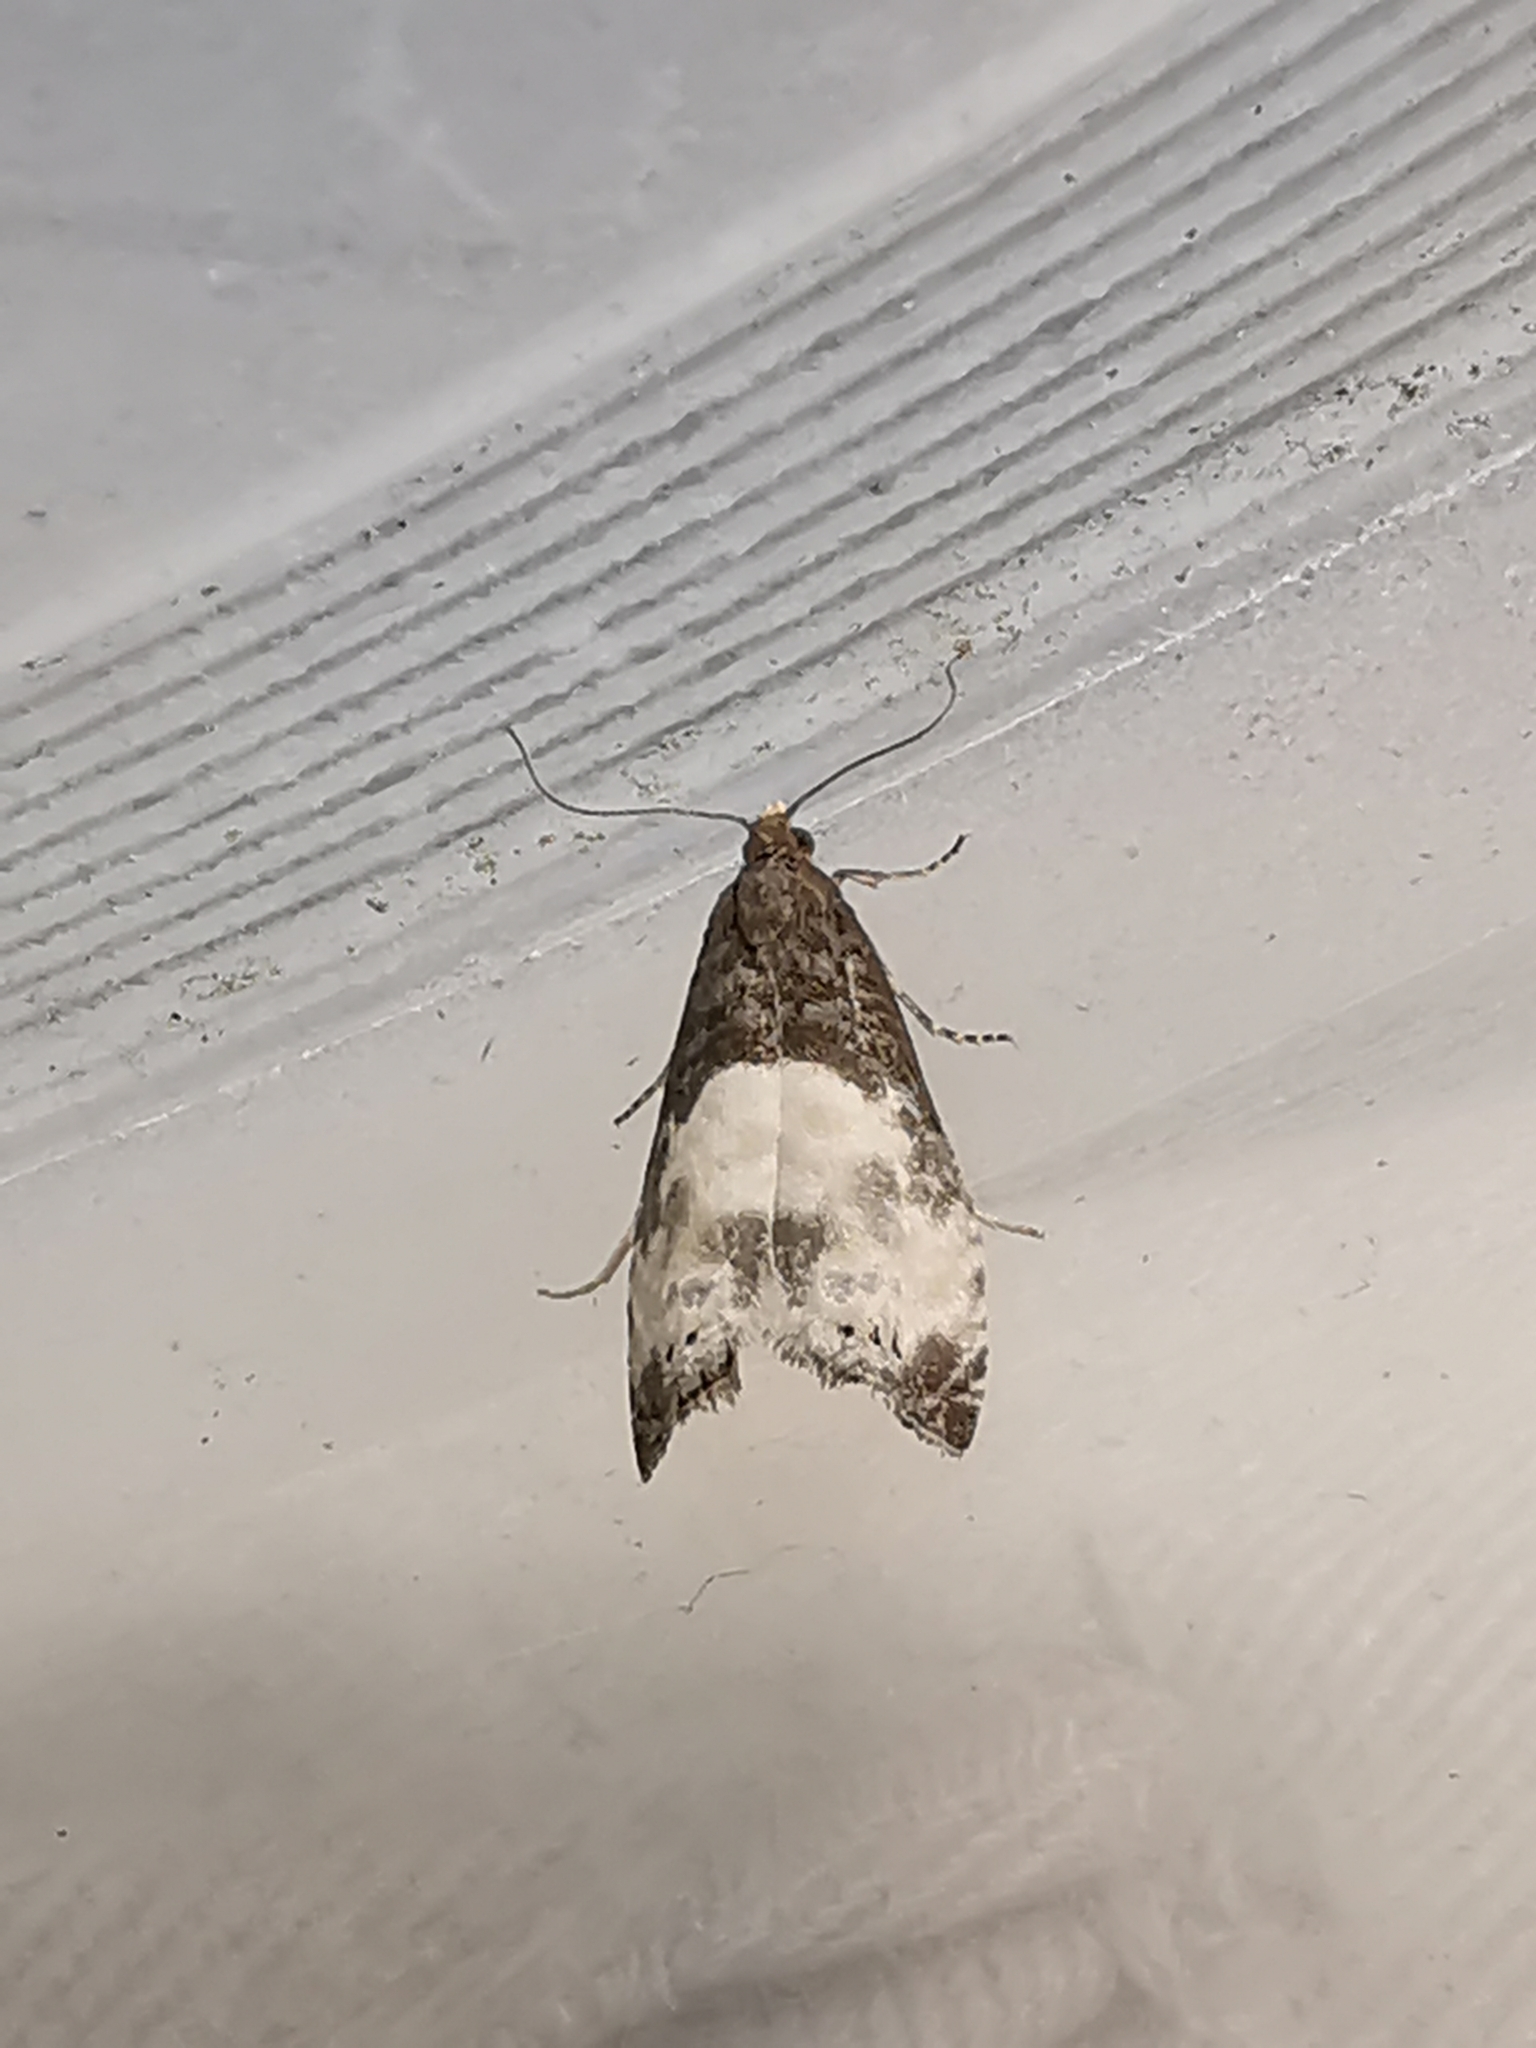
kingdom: Animalia
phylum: Arthropoda
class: Insecta
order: Lepidoptera
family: Tortricidae
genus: Notocelia
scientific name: Notocelia cynosbatella
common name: Yellow-faced bell moth
